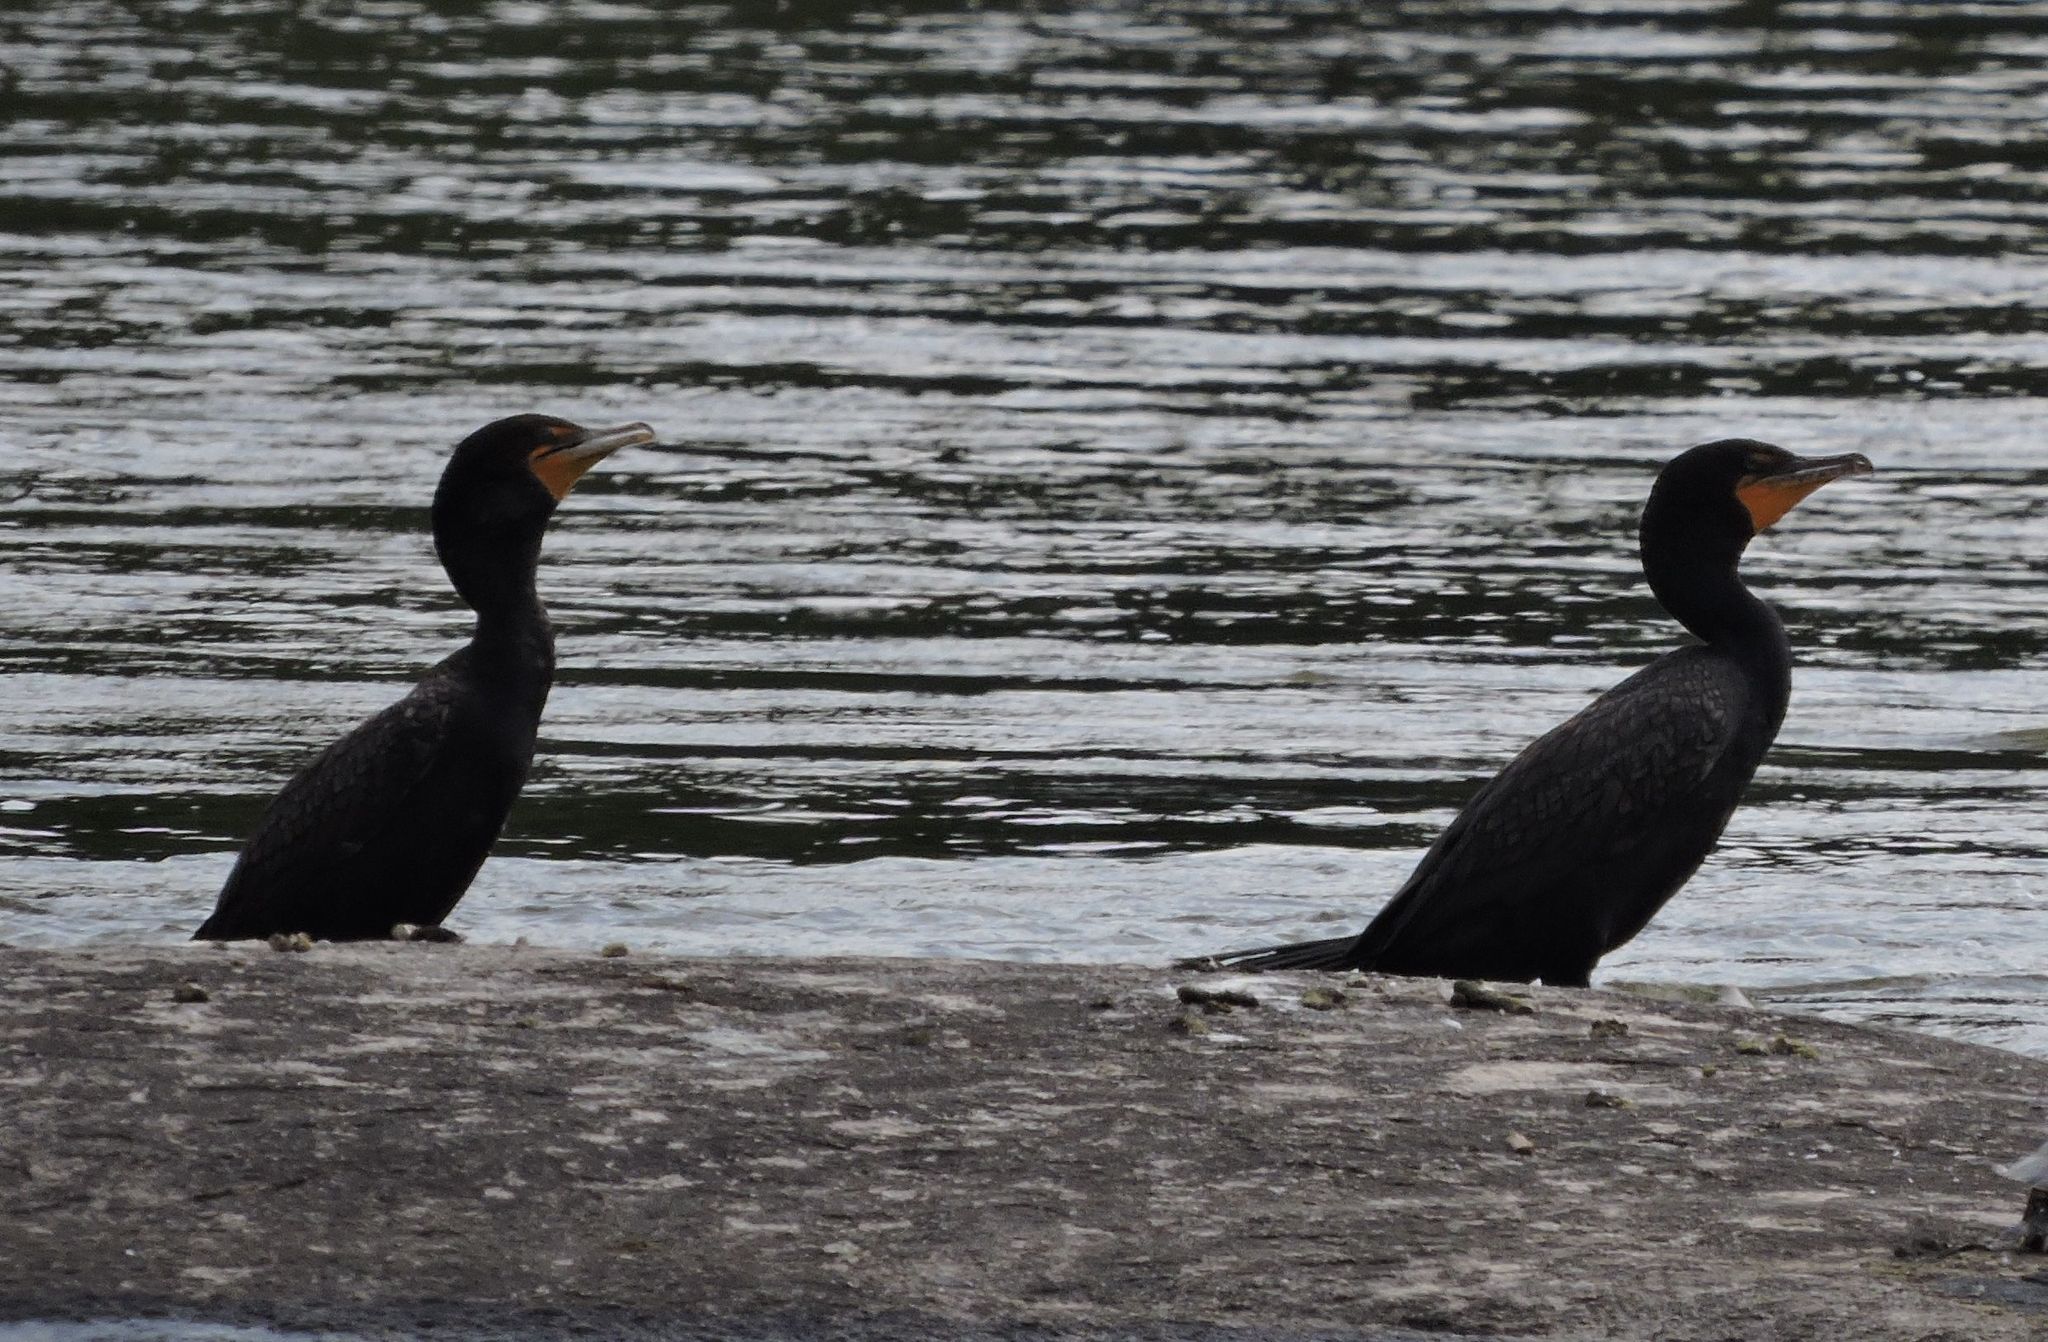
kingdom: Animalia
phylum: Chordata
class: Aves
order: Suliformes
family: Phalacrocoracidae
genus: Phalacrocorax
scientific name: Phalacrocorax auritus
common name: Double-crested cormorant
